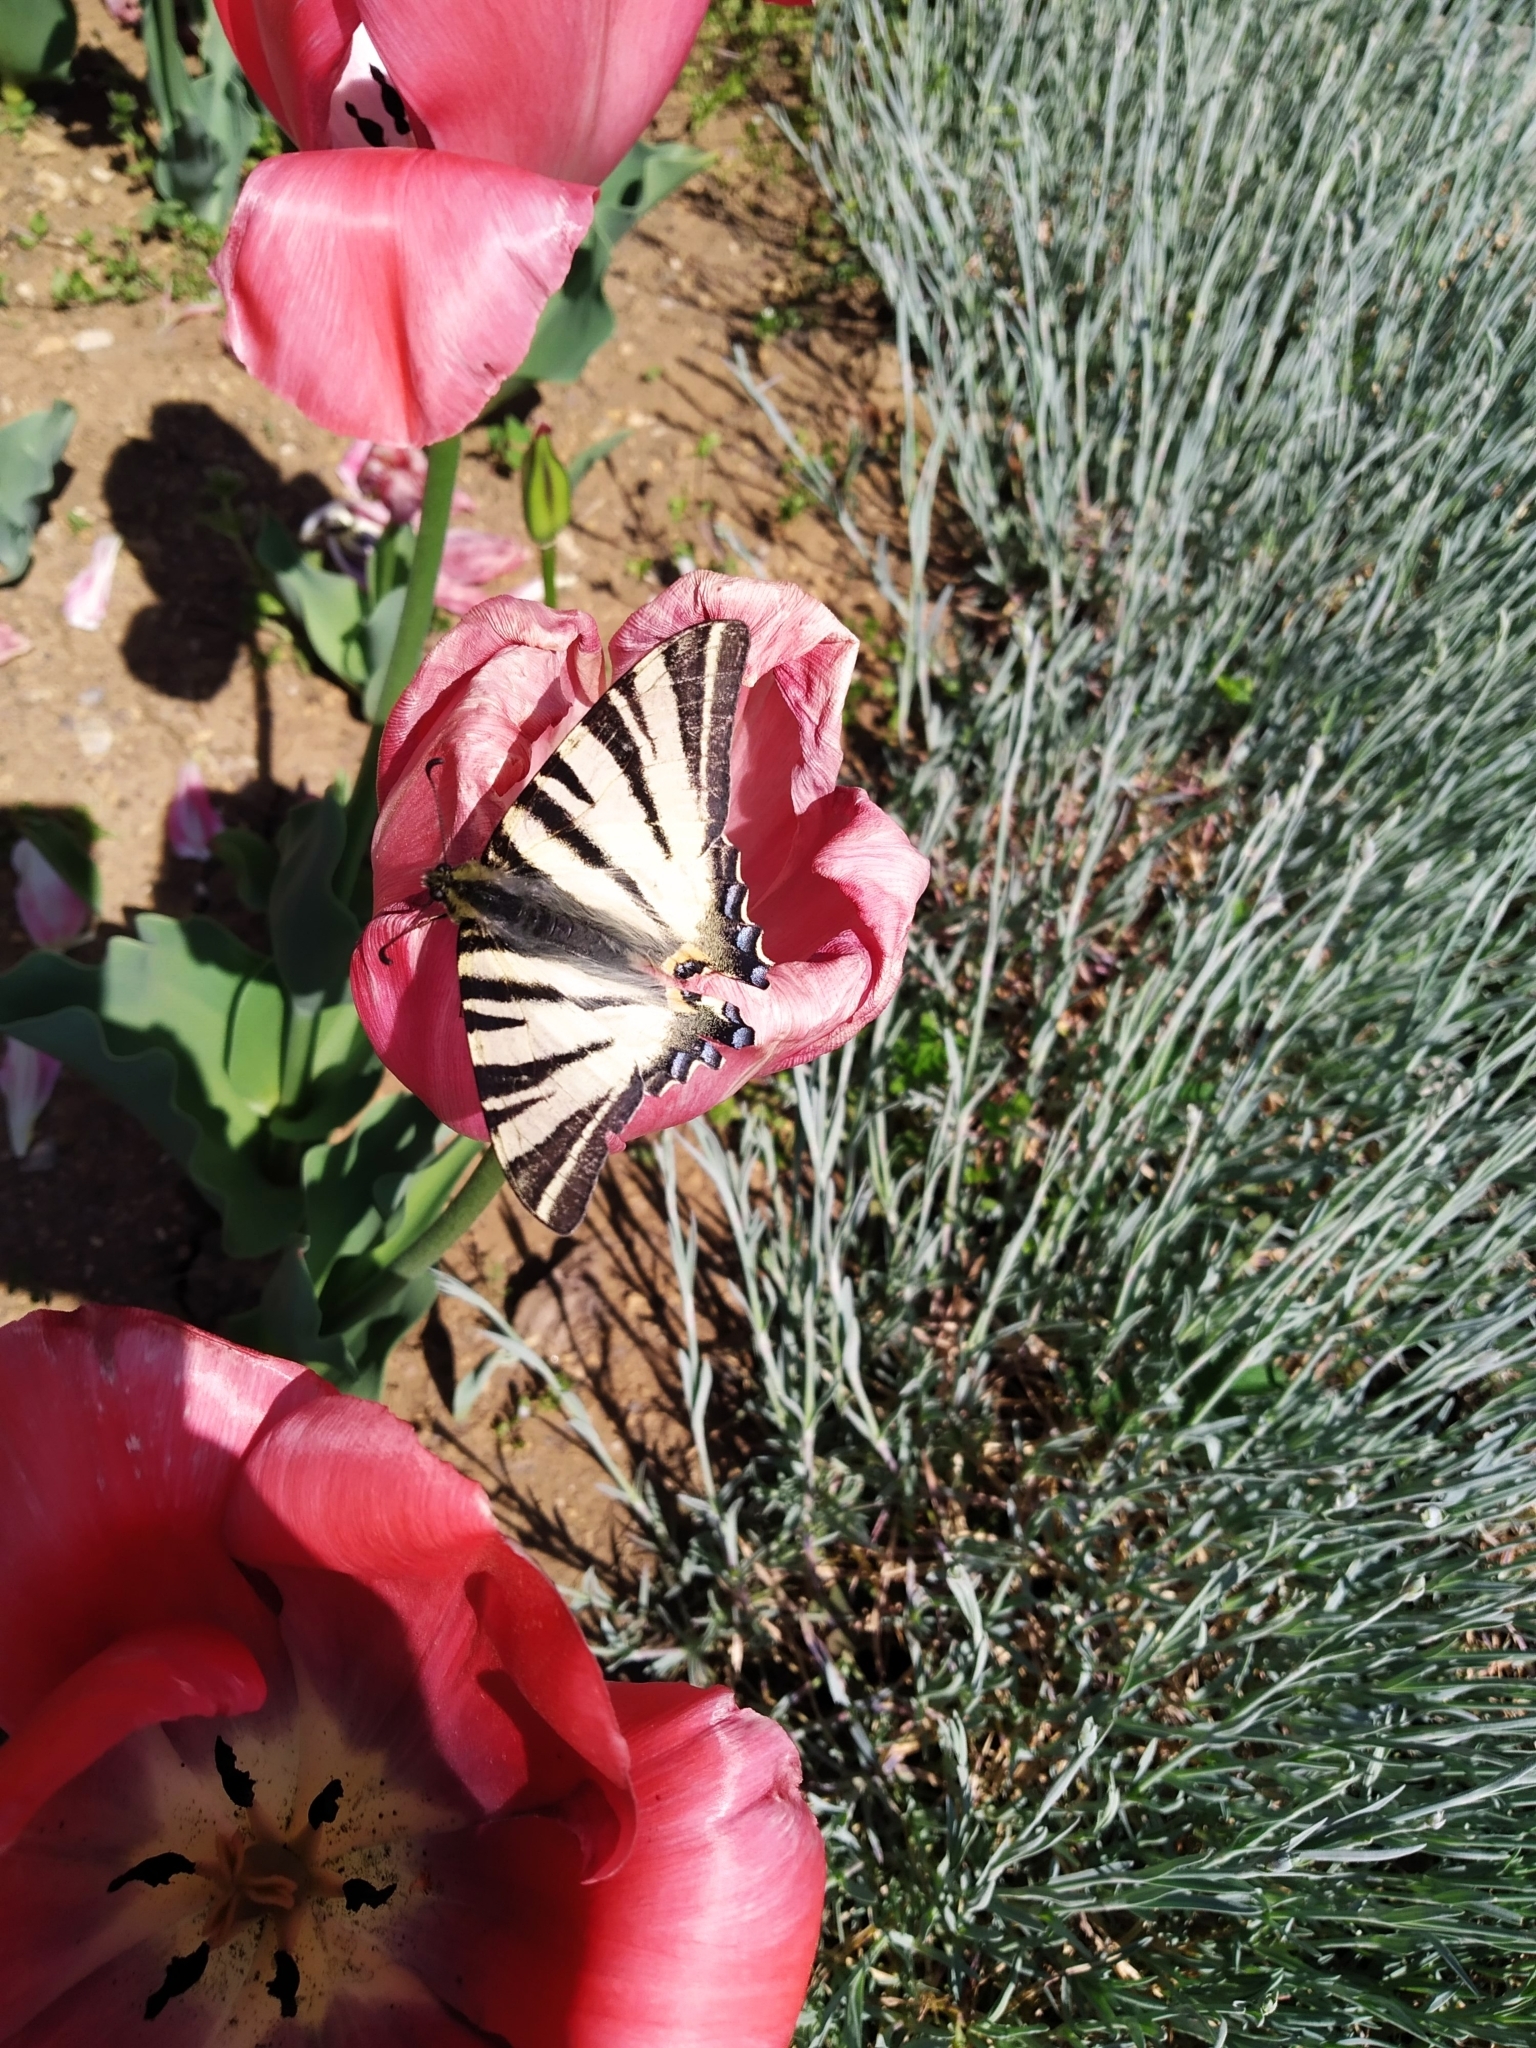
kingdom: Animalia
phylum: Arthropoda
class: Insecta
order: Lepidoptera
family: Papilionidae
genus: Iphiclides
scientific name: Iphiclides podalirius
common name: Scarce swallowtail
